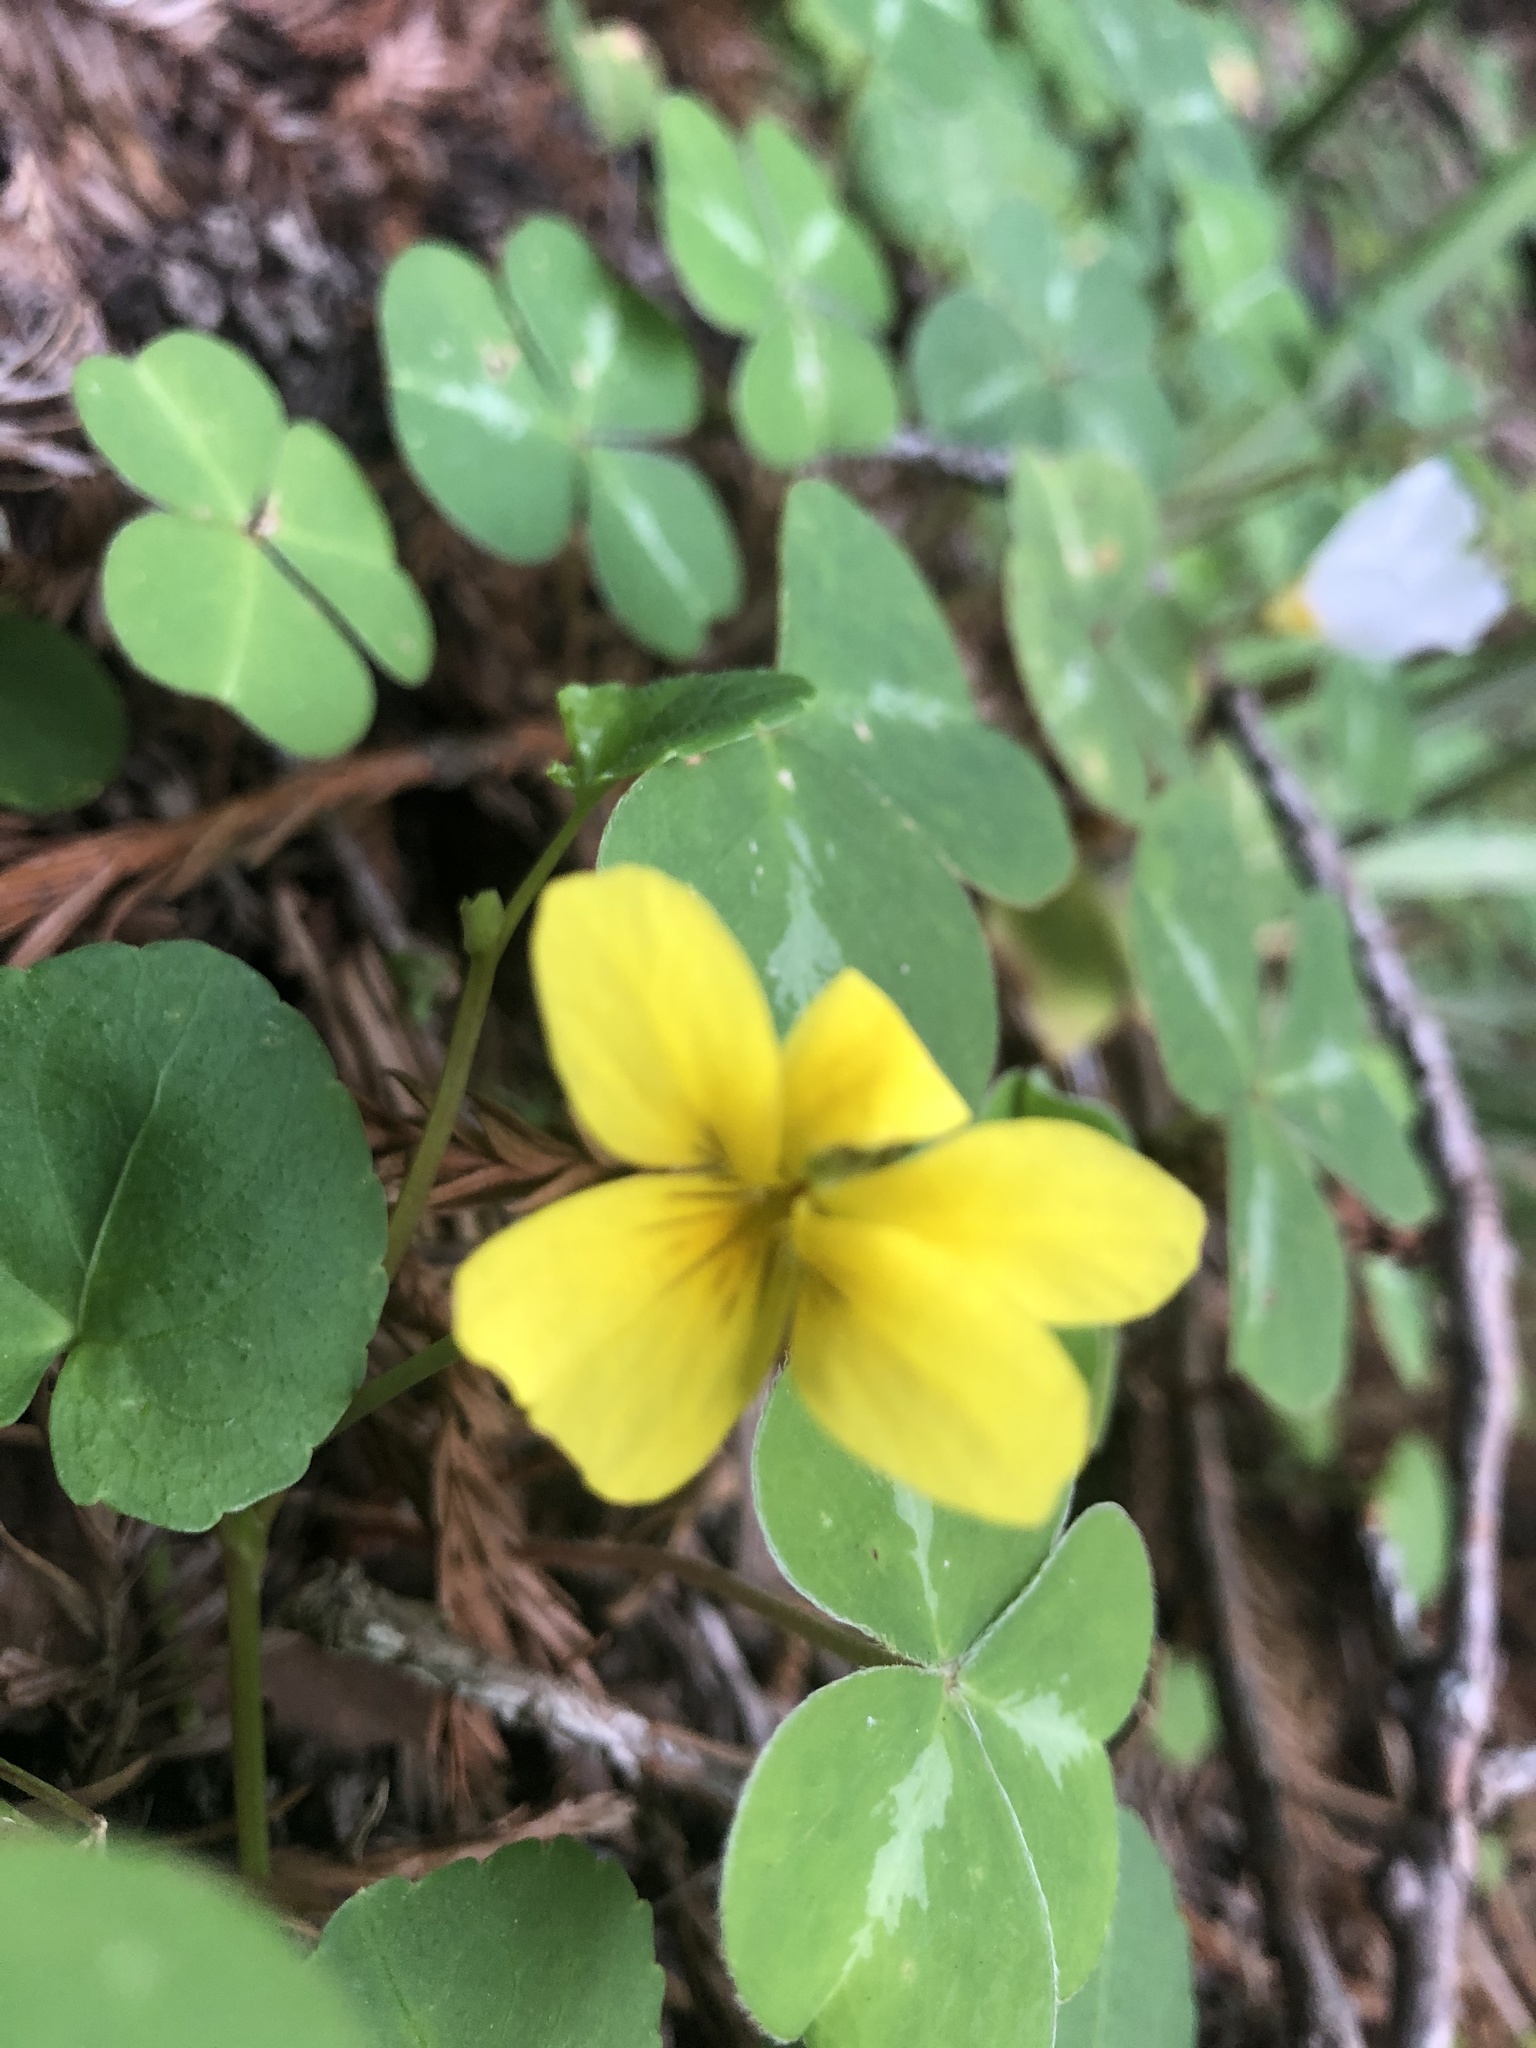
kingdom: Plantae
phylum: Tracheophyta
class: Magnoliopsida
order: Malpighiales
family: Violaceae
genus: Viola
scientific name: Viola sempervirens
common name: Evergreen violet
